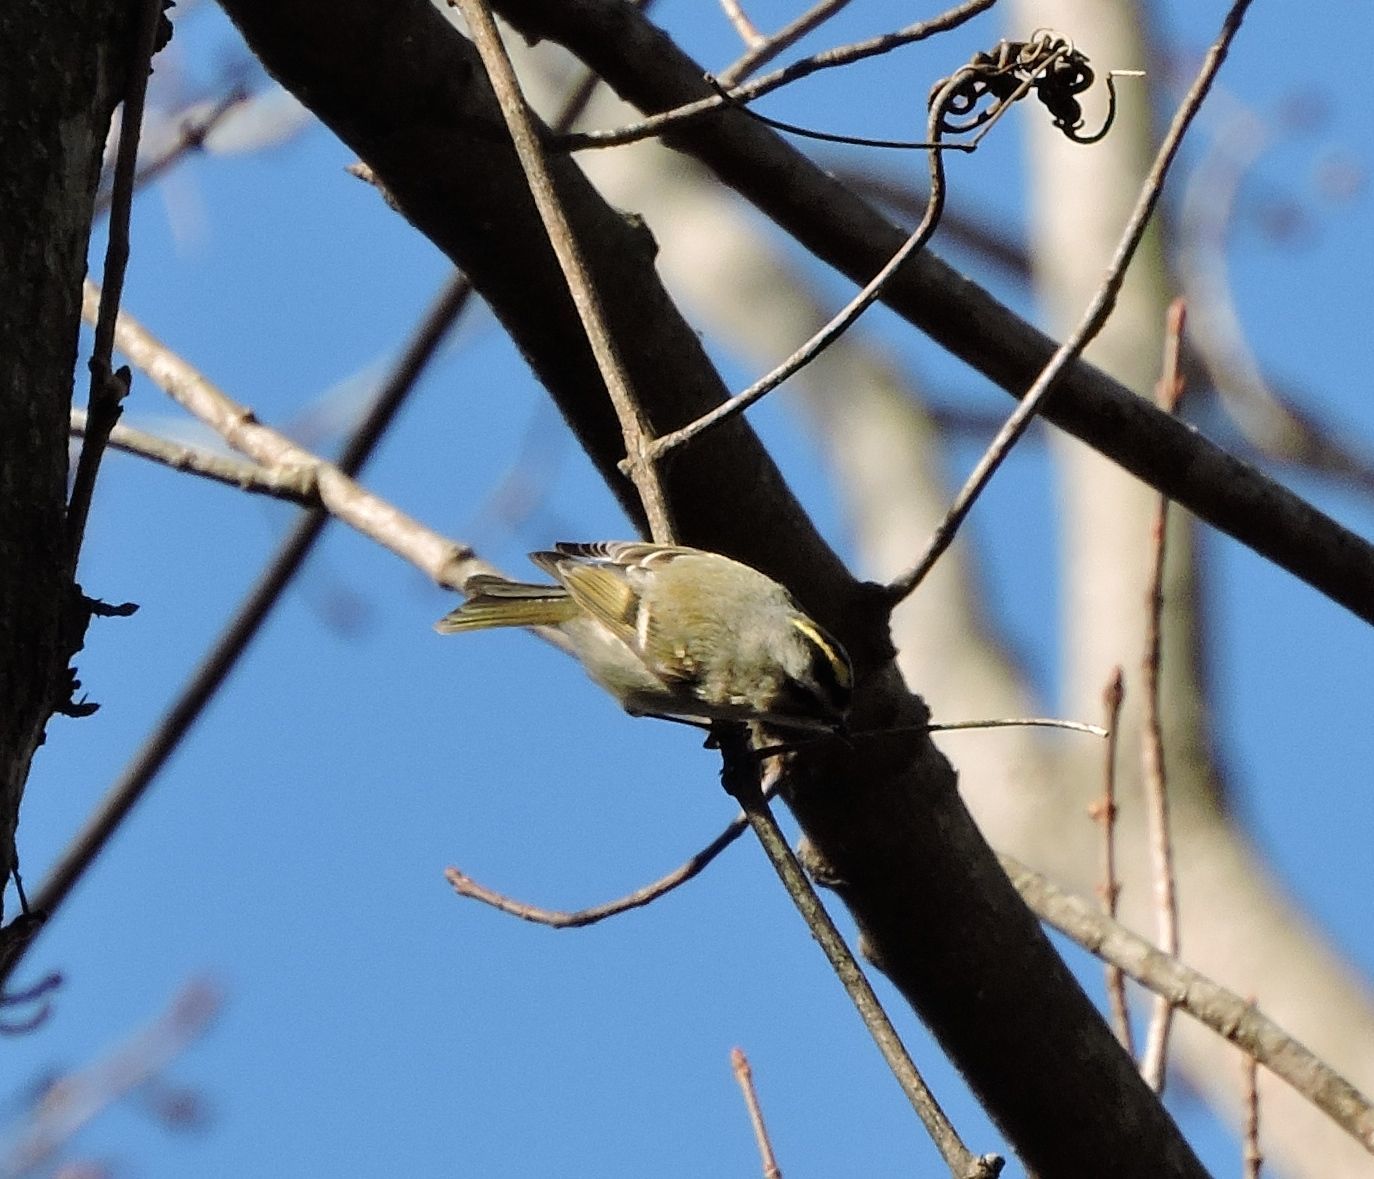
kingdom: Animalia
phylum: Chordata
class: Aves
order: Passeriformes
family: Regulidae
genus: Regulus
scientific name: Regulus satrapa
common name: Golden-crowned kinglet
